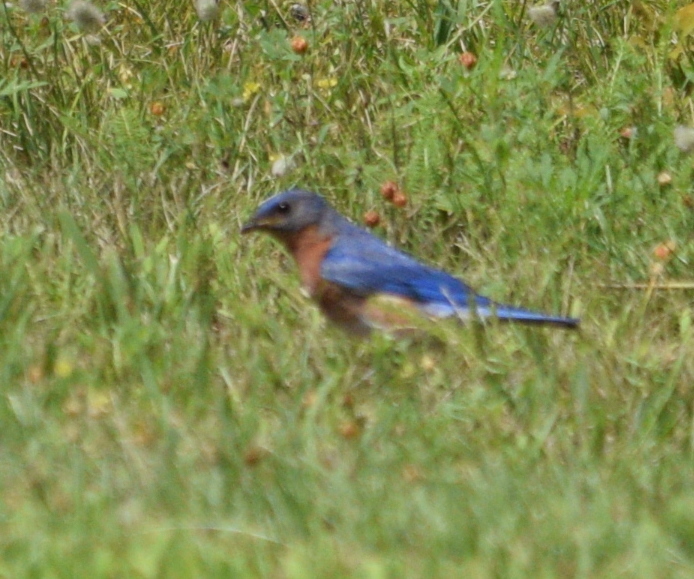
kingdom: Animalia
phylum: Chordata
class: Aves
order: Passeriformes
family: Turdidae
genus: Sialia
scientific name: Sialia sialis
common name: Eastern bluebird
